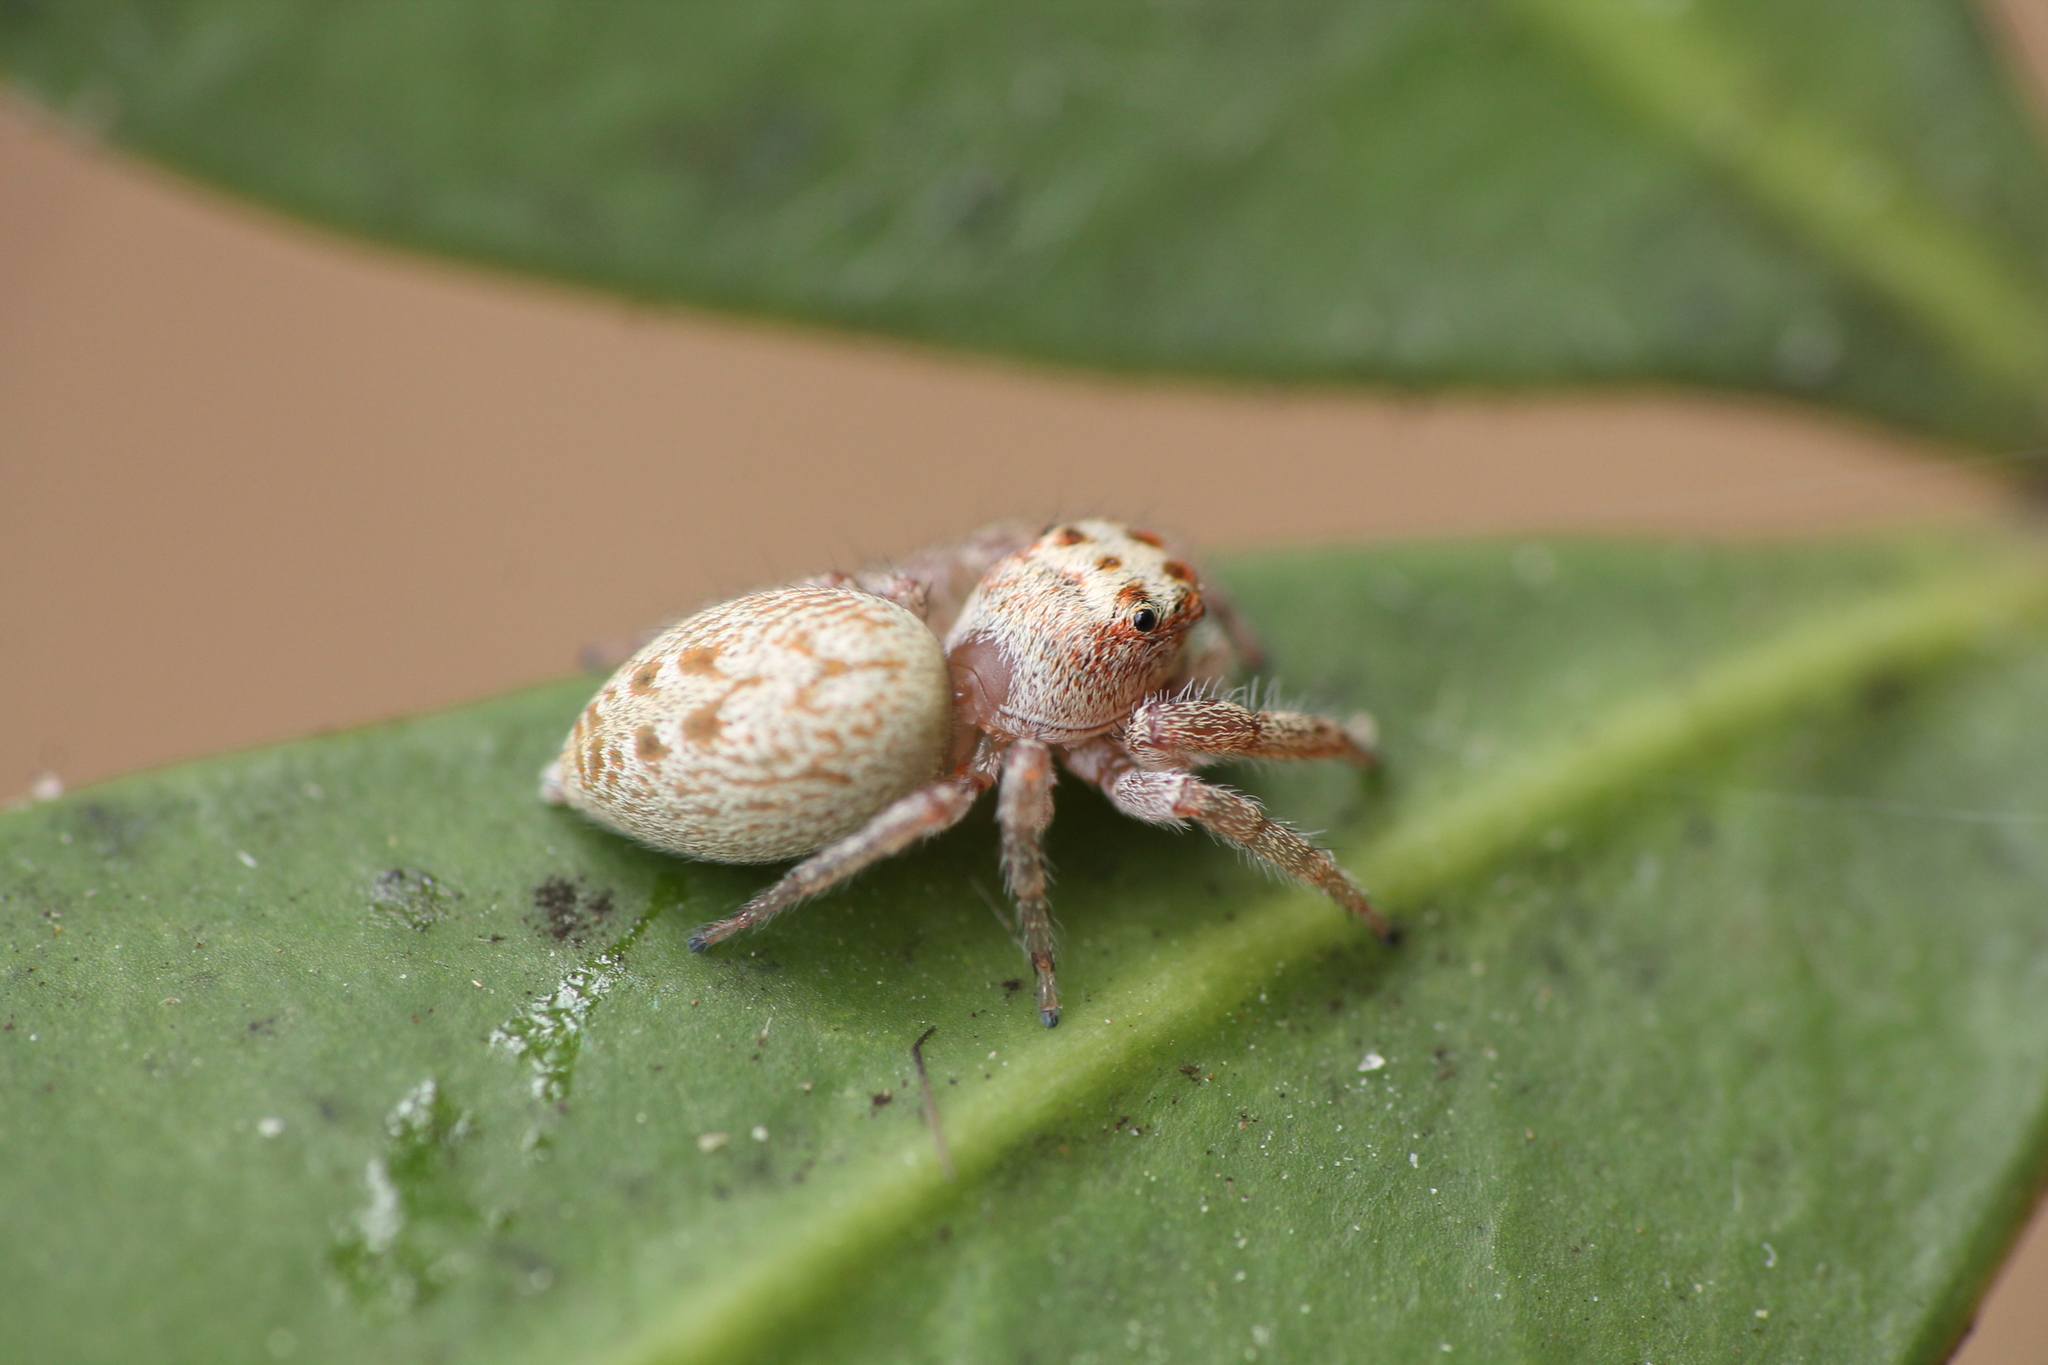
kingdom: Animalia
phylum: Arthropoda
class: Arachnida
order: Araneae
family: Salticidae
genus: Opisthoncus
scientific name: Opisthoncus polyphemus
